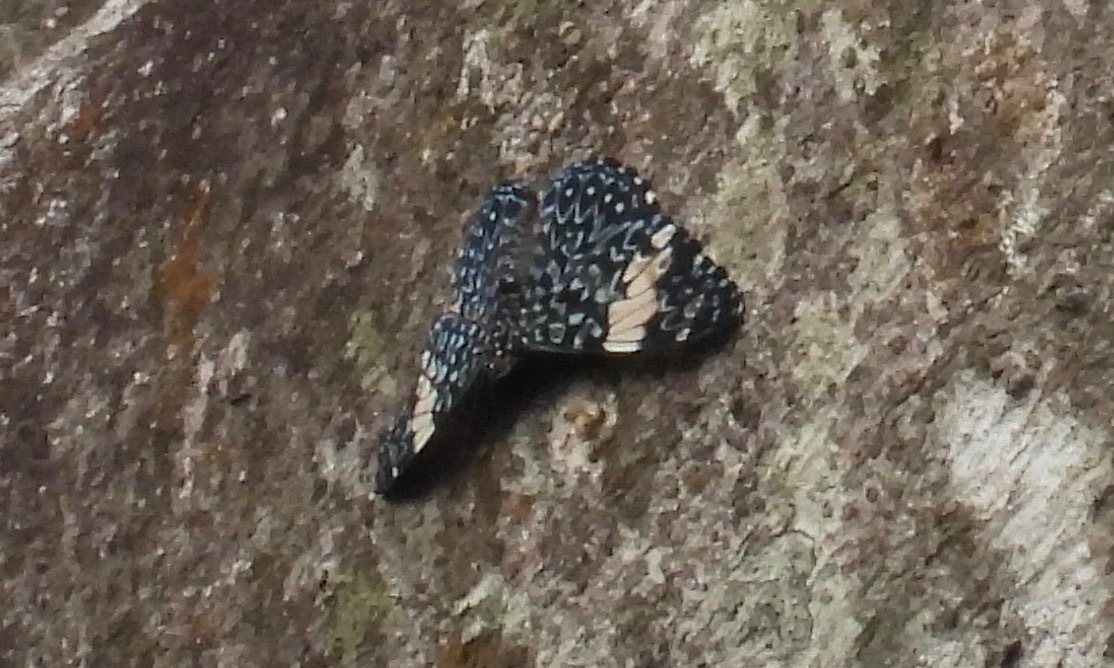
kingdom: Animalia
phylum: Arthropoda
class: Insecta
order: Lepidoptera
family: Nymphalidae
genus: Hamadryas
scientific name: Hamadryas amphinome
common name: Red cracker
